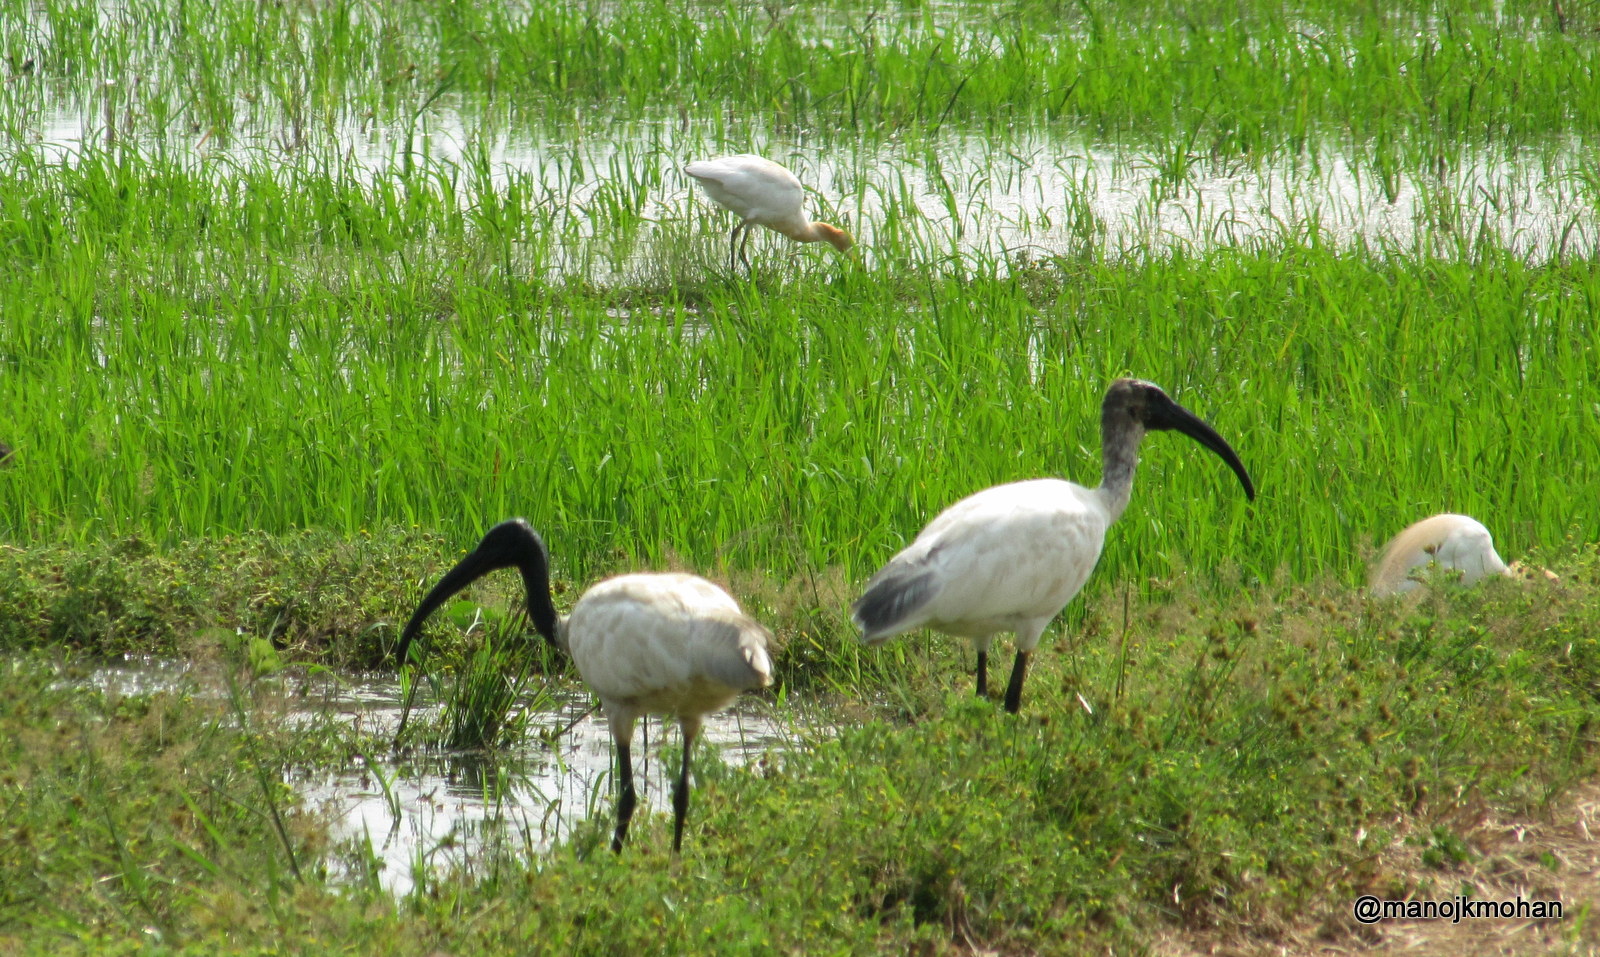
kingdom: Animalia
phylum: Chordata
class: Aves
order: Pelecaniformes
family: Threskiornithidae
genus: Threskiornis
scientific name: Threskiornis melanocephalus
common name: Black-headed ibis
